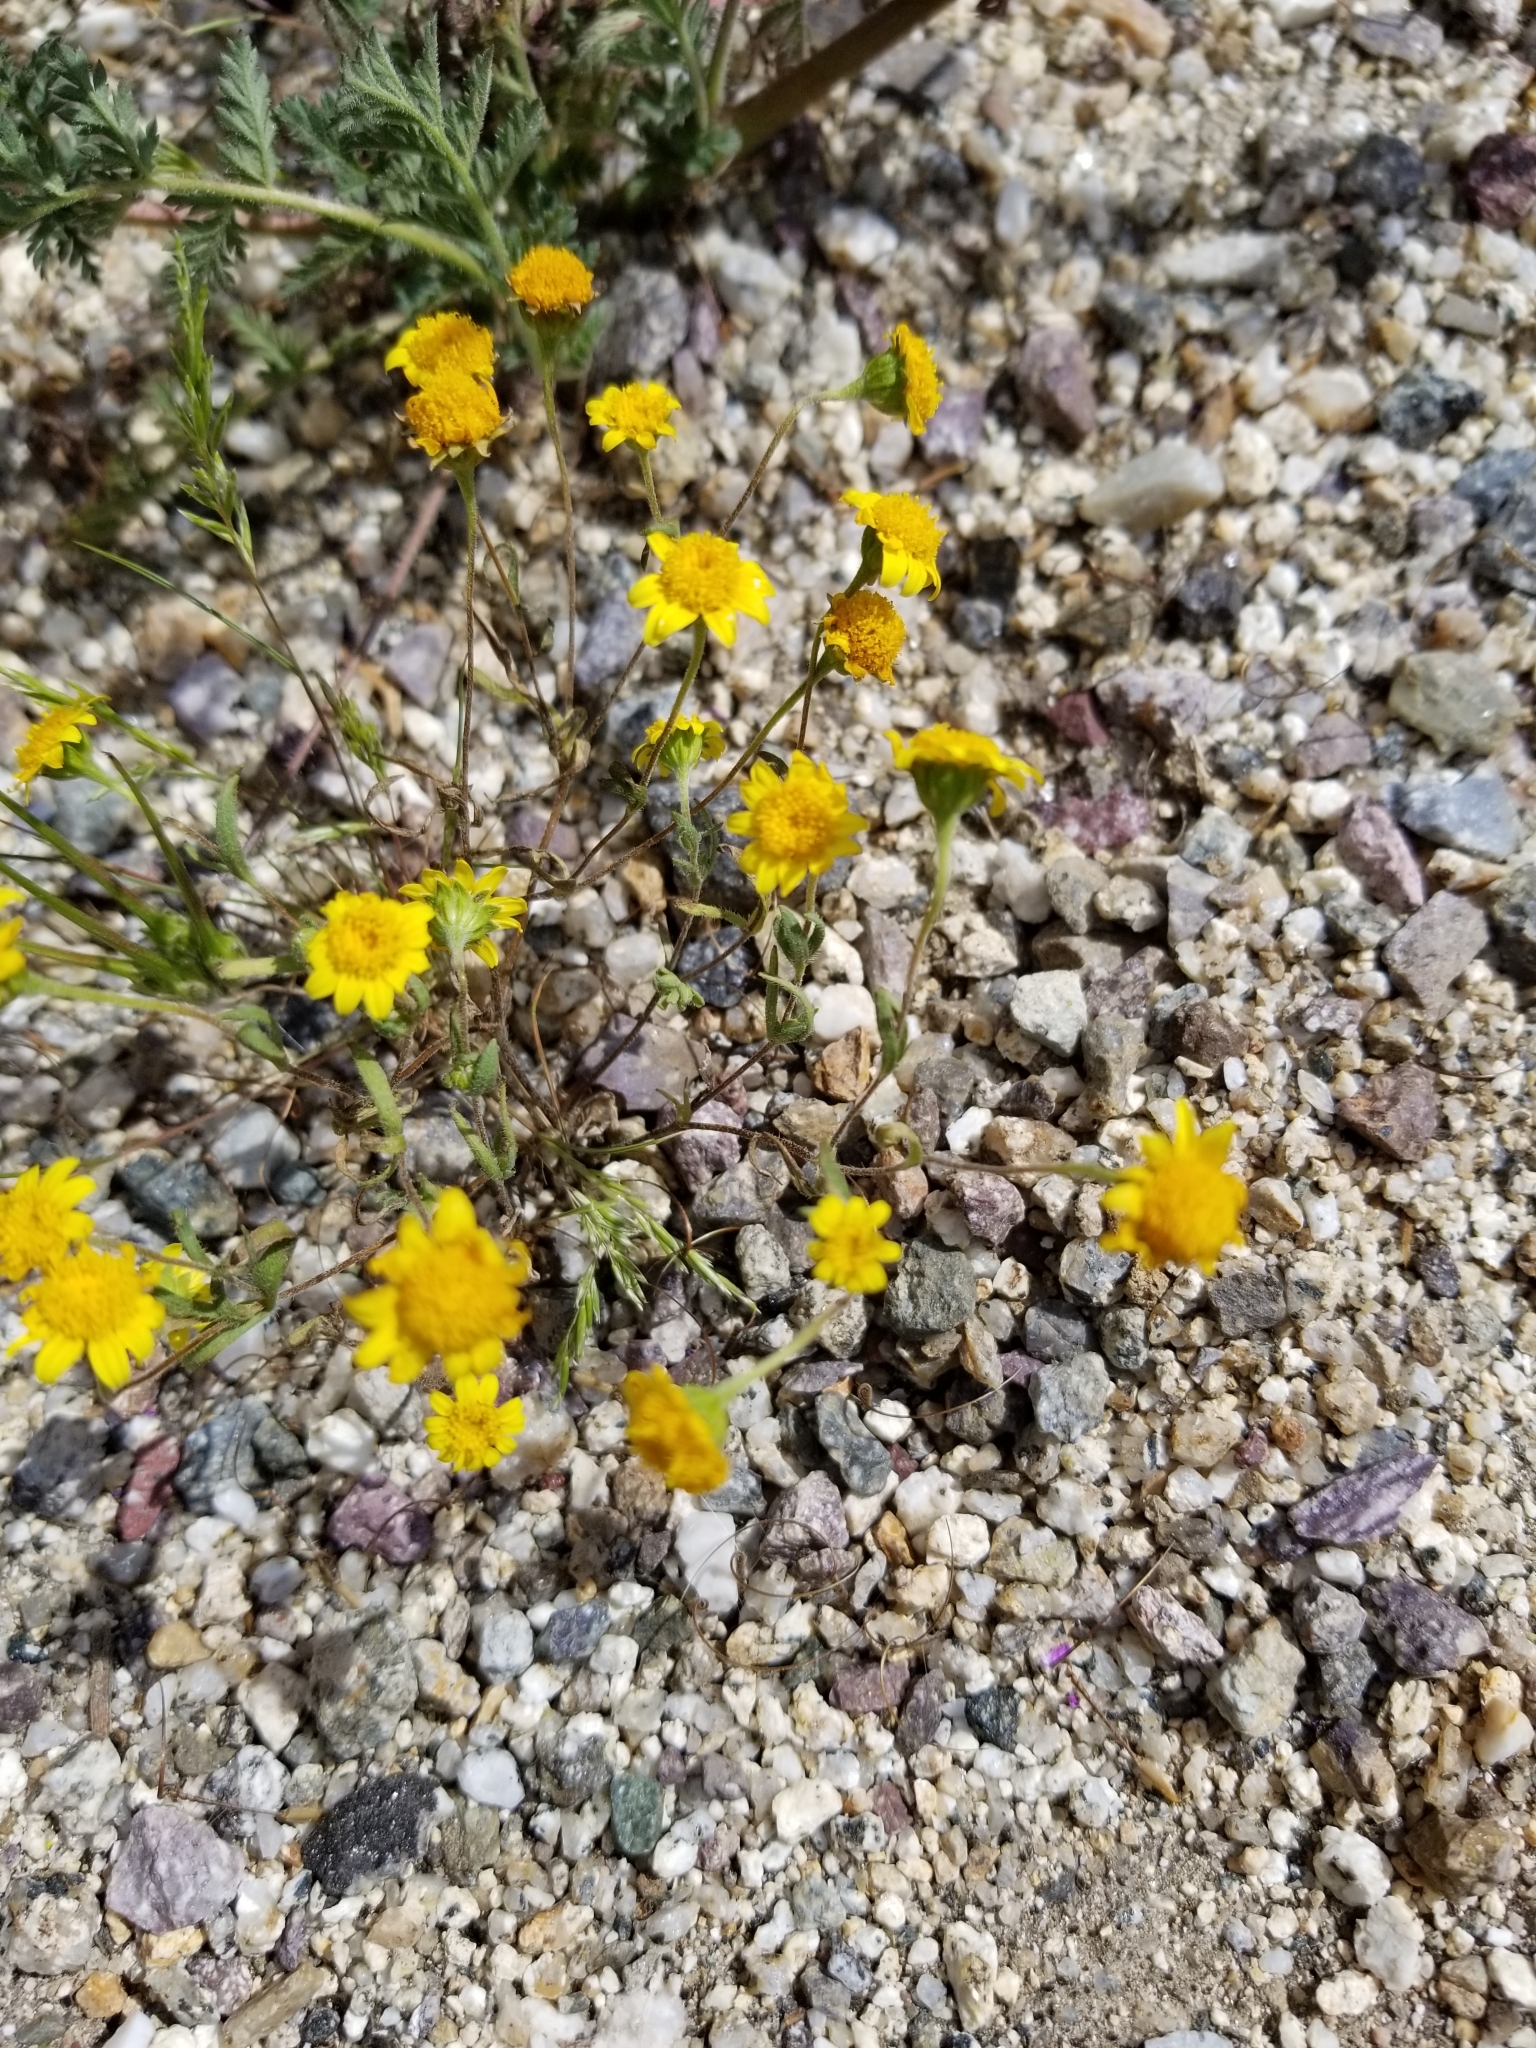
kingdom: Plantae
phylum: Tracheophyta
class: Magnoliopsida
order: Asterales
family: Asteraceae
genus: Lasthenia
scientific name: Lasthenia gracilis
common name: Common goldfields
